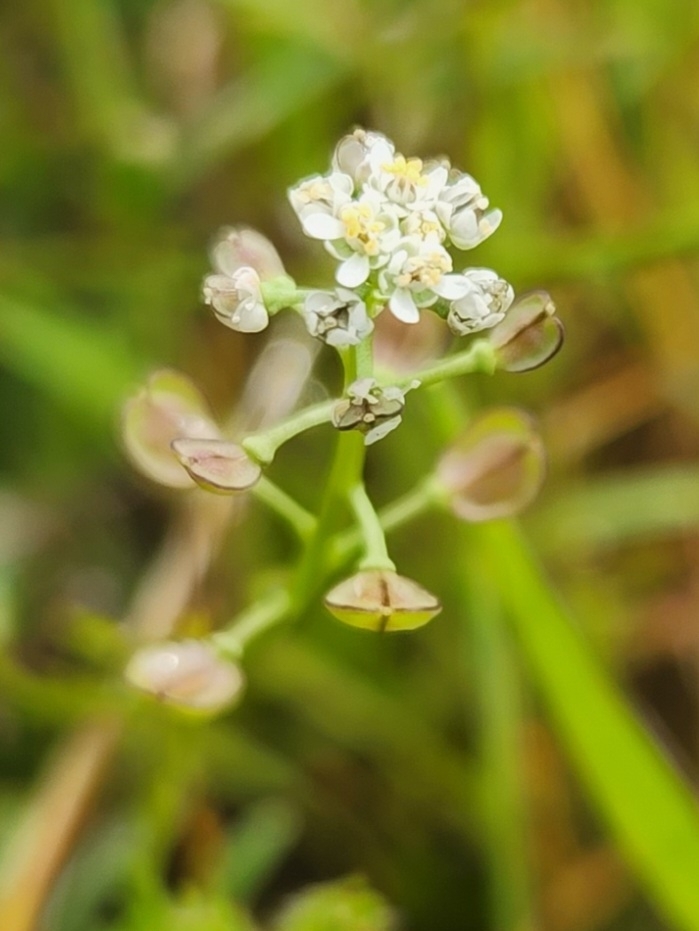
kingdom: Plantae
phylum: Tracheophyta
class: Magnoliopsida
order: Brassicales
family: Brassicaceae
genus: Teesdalia
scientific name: Teesdalia nudicaulis
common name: Shepherd's cress
